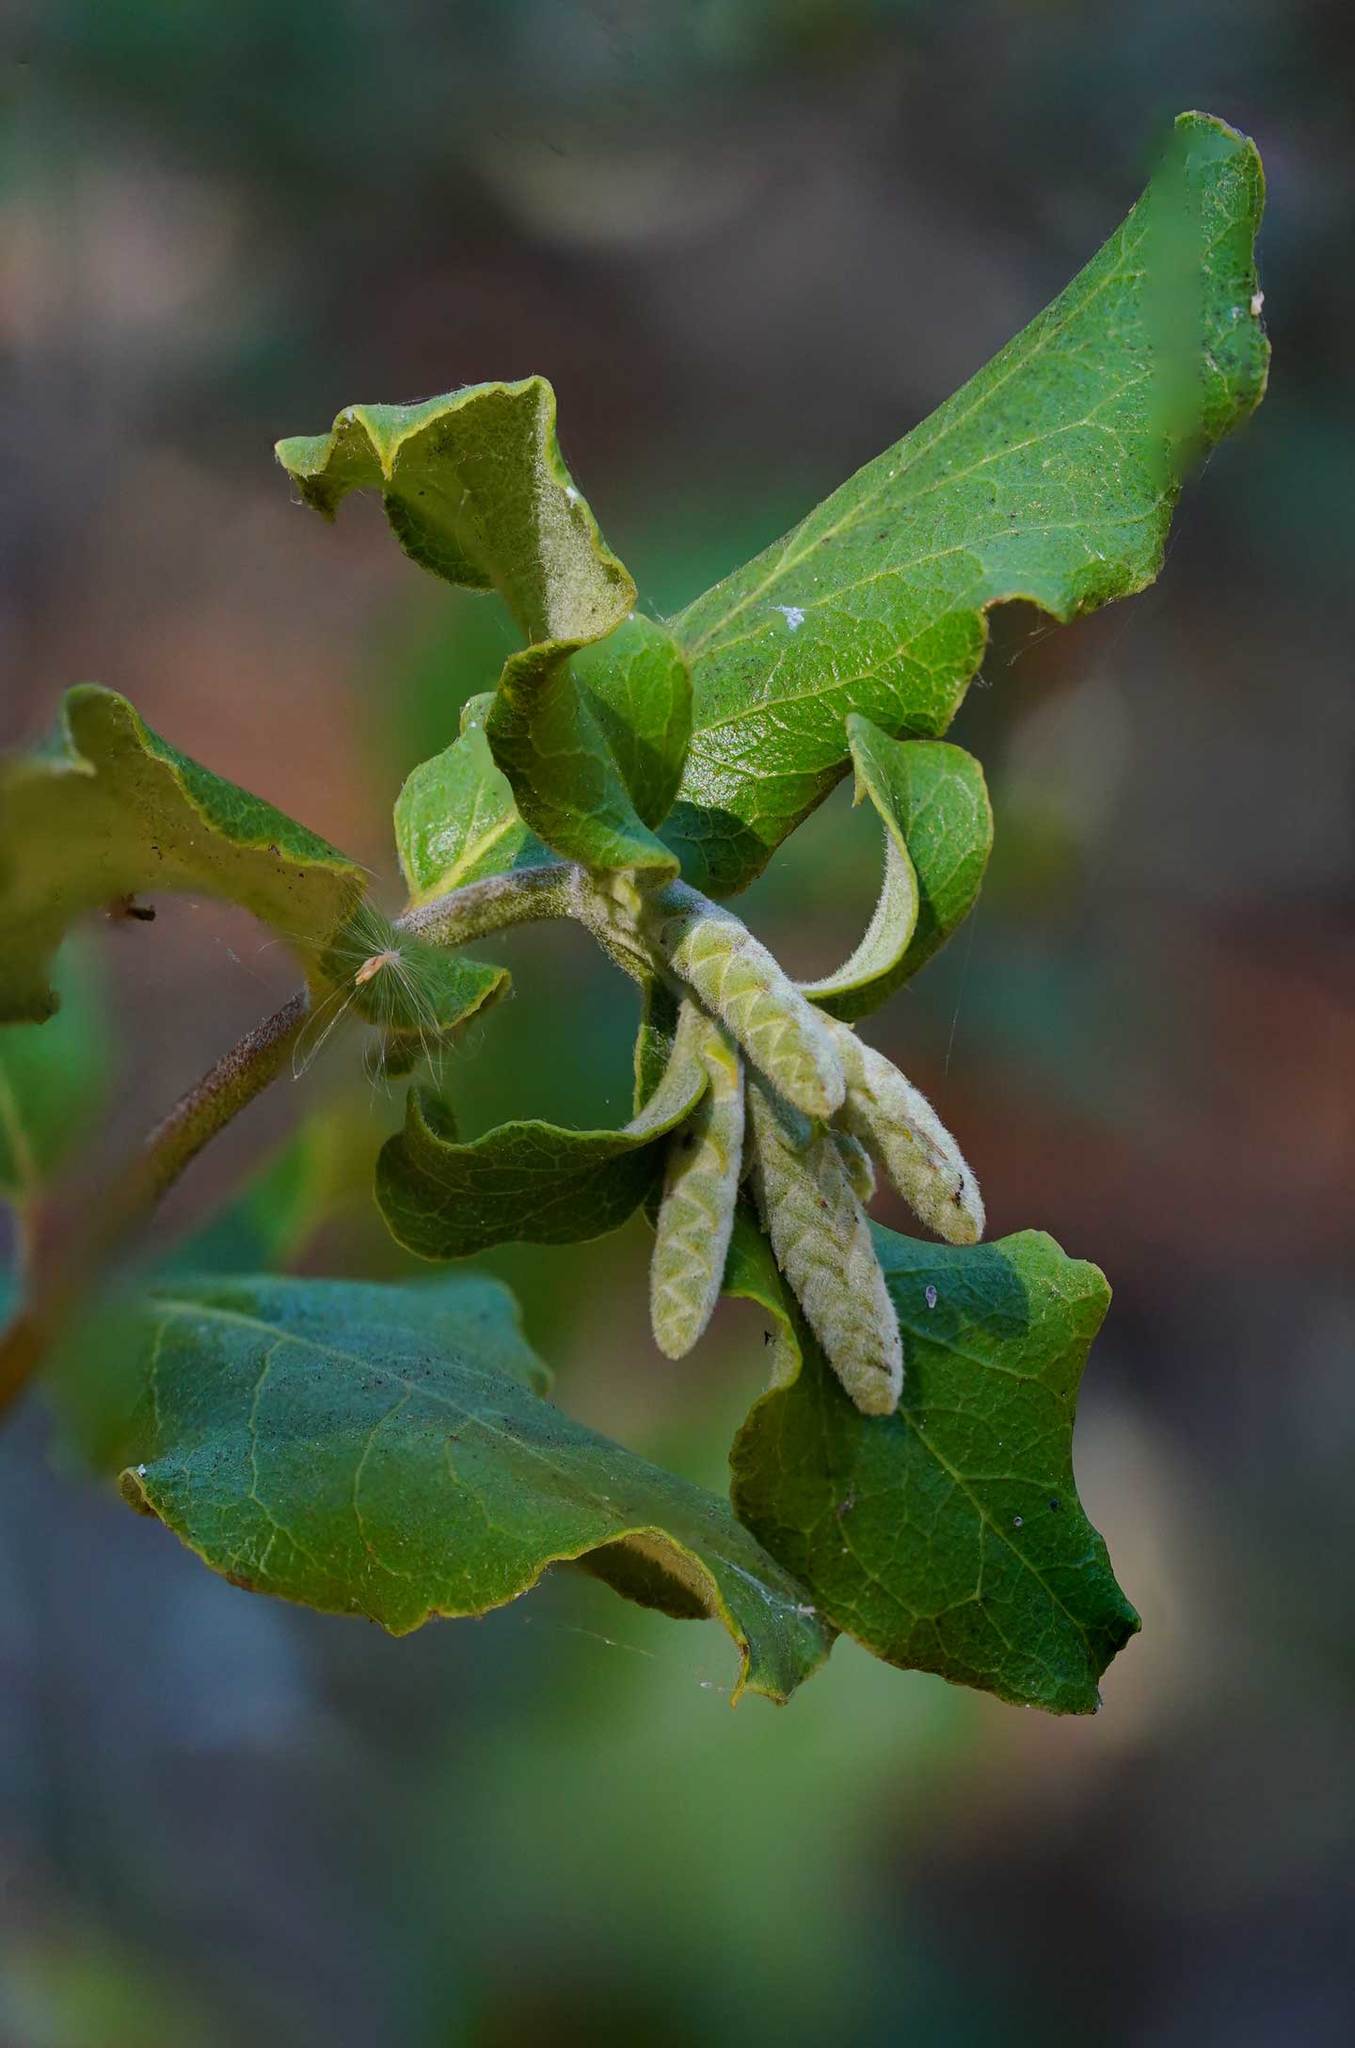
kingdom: Plantae
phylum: Tracheophyta
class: Magnoliopsida
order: Garryales
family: Garryaceae
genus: Garrya
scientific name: Garrya elliptica
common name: Silk-tassel
